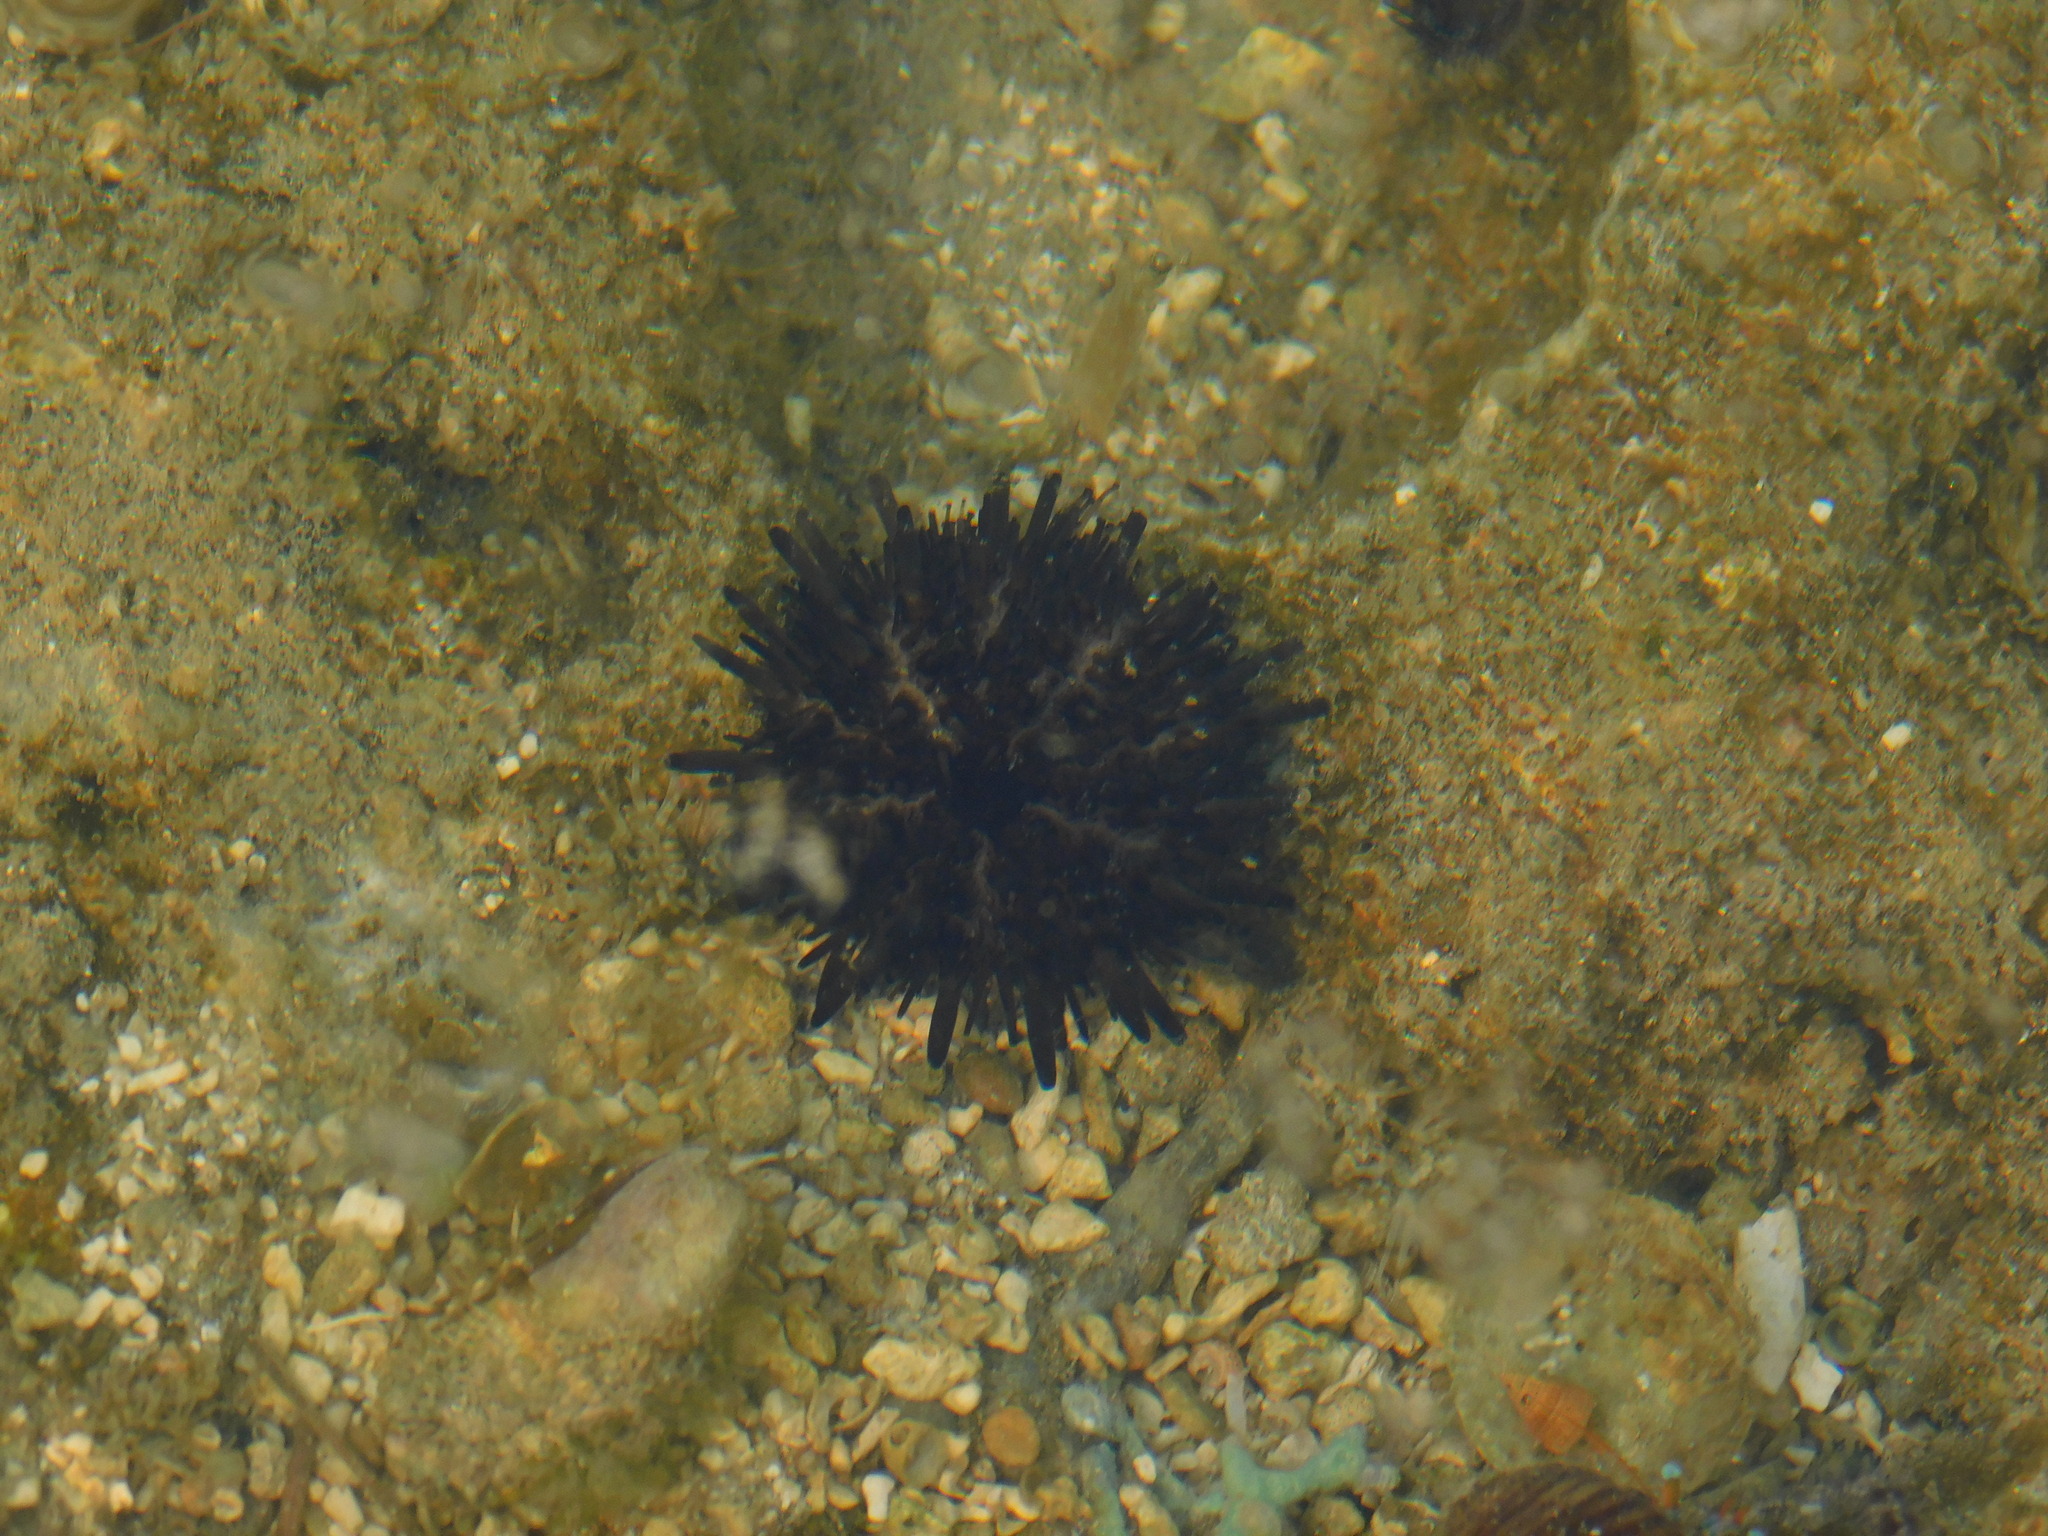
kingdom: Animalia
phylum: Echinodermata
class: Echinoidea
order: Stomopneustoida
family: Stomopneustidae
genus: Stomopneustes
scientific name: Stomopneustes variolaris
